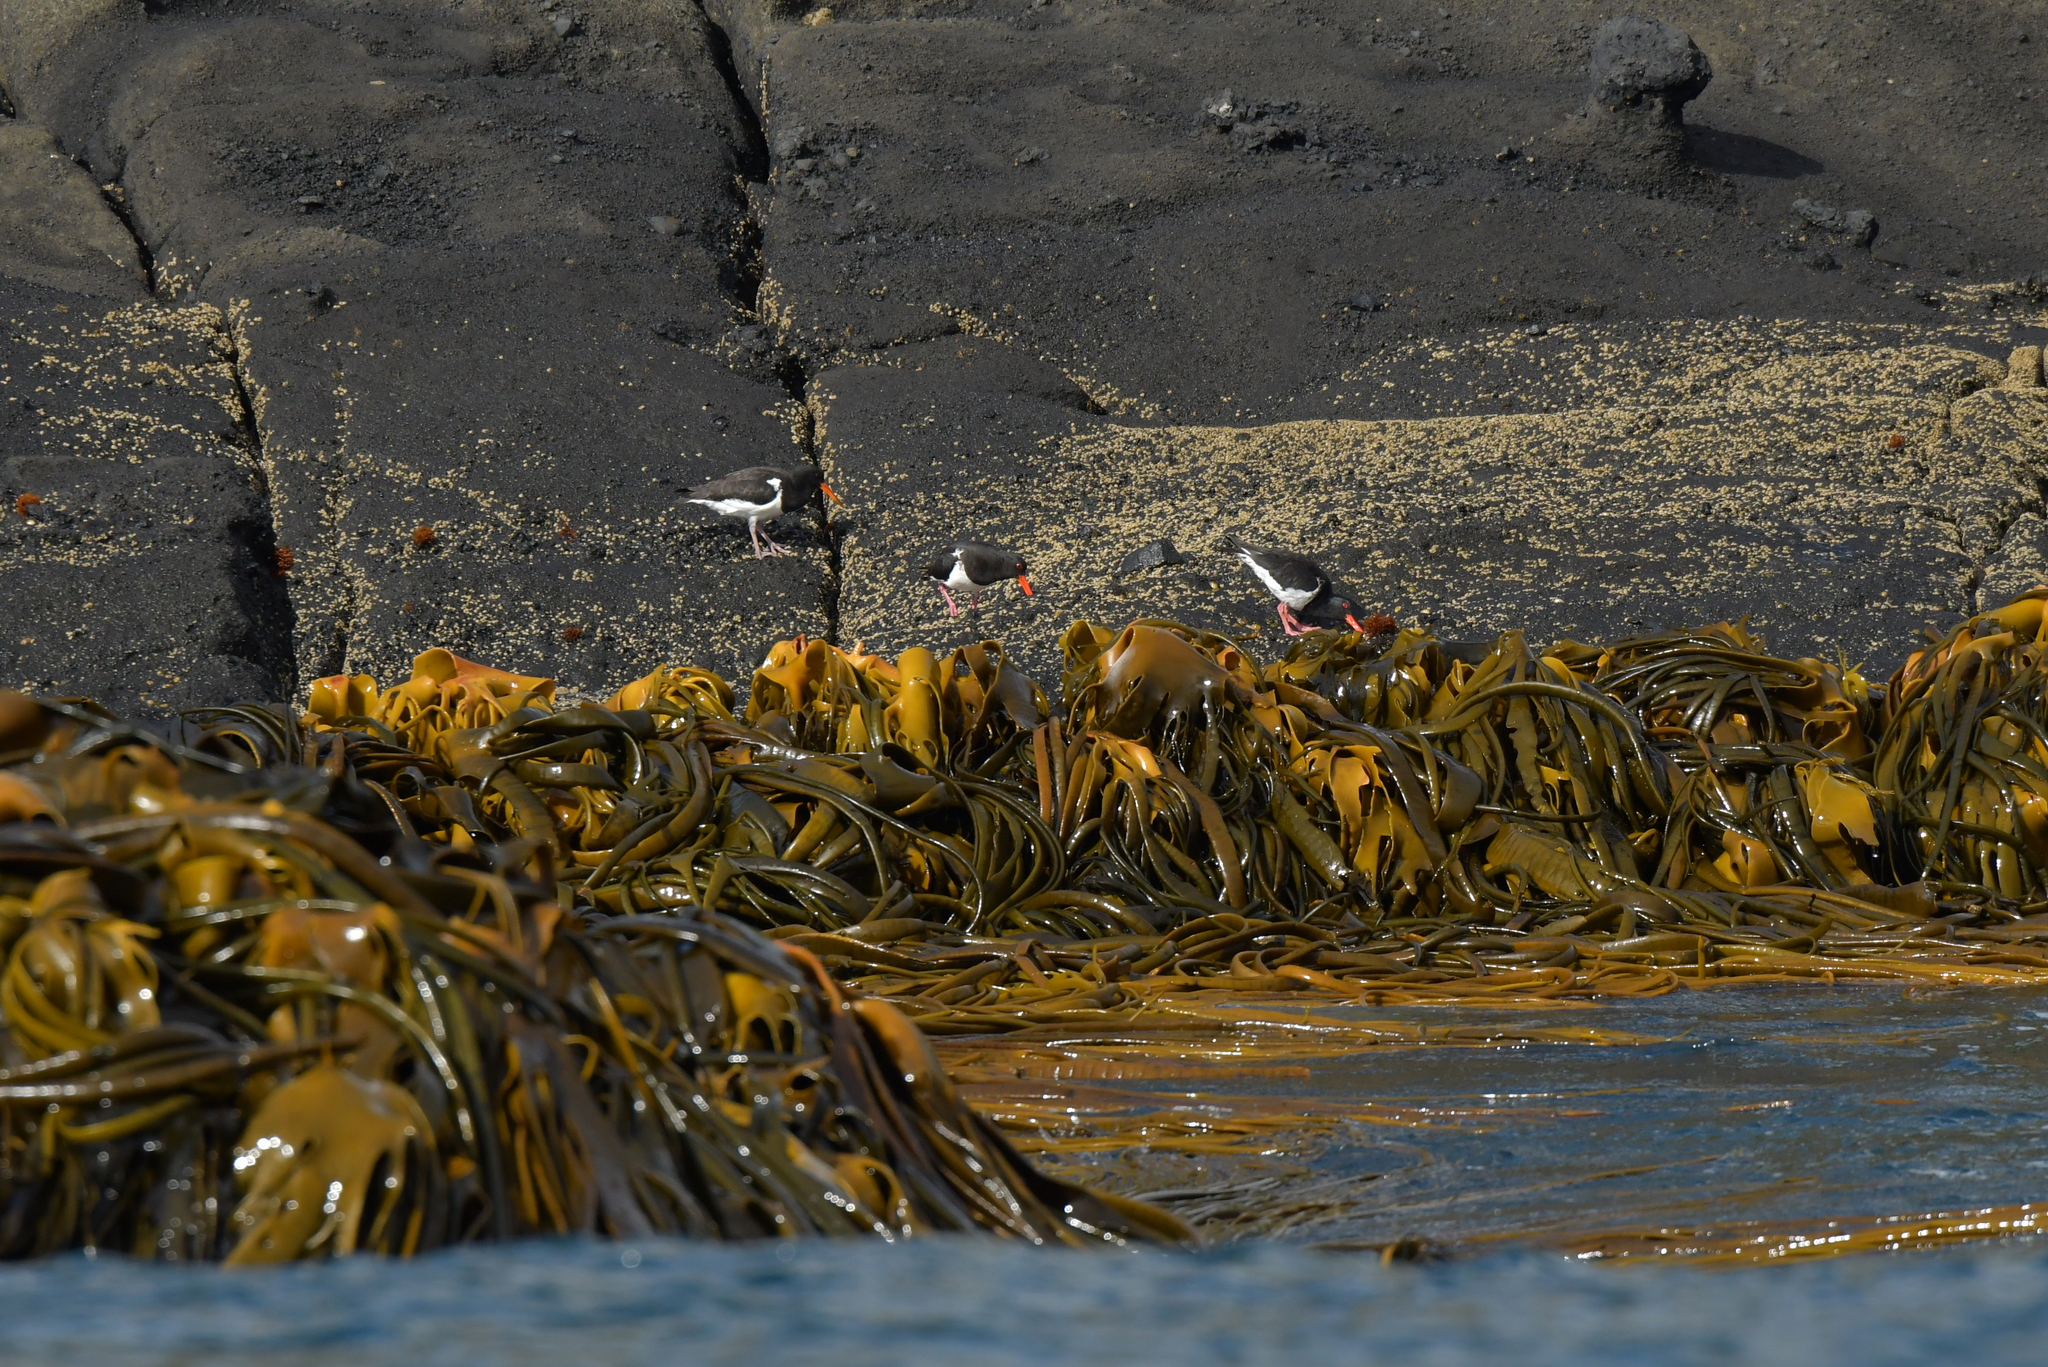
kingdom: Chromista
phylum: Ochrophyta
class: Phaeophyceae
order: Fucales
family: Durvillaeaceae
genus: Durvillaea
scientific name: Durvillaea chathamensis
